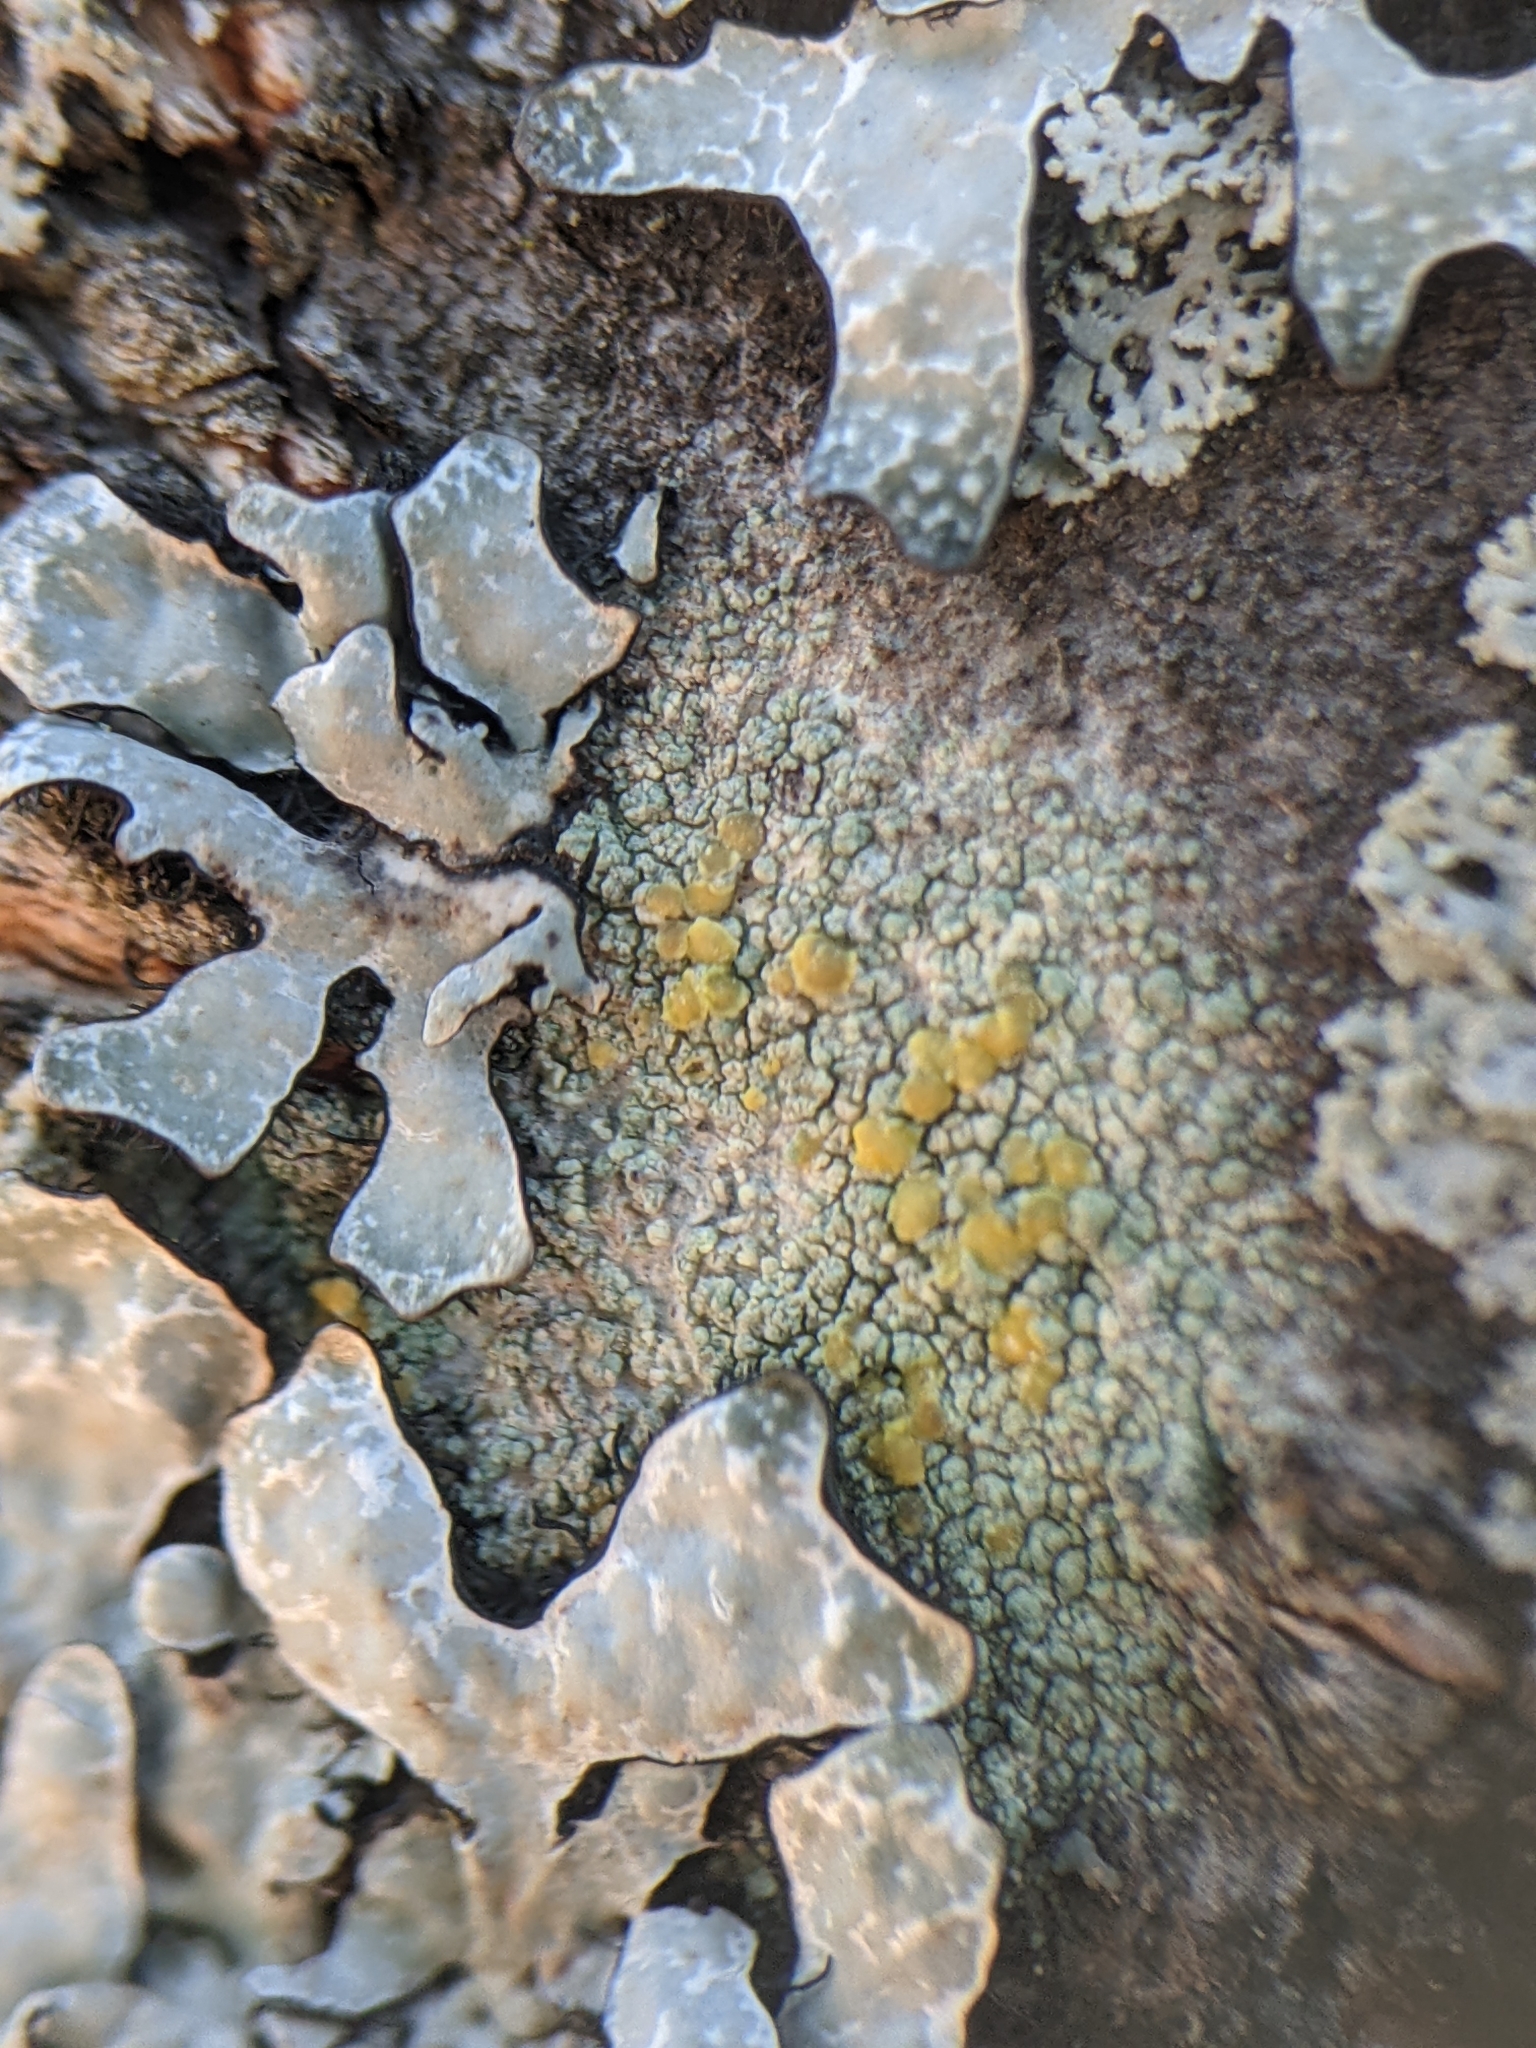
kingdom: Fungi
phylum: Ascomycota
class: Lecanoromycetes
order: Lecanorales
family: Lecanoraceae
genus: Lecanora
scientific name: Lecanora symmicta
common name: Fused rim lichen
